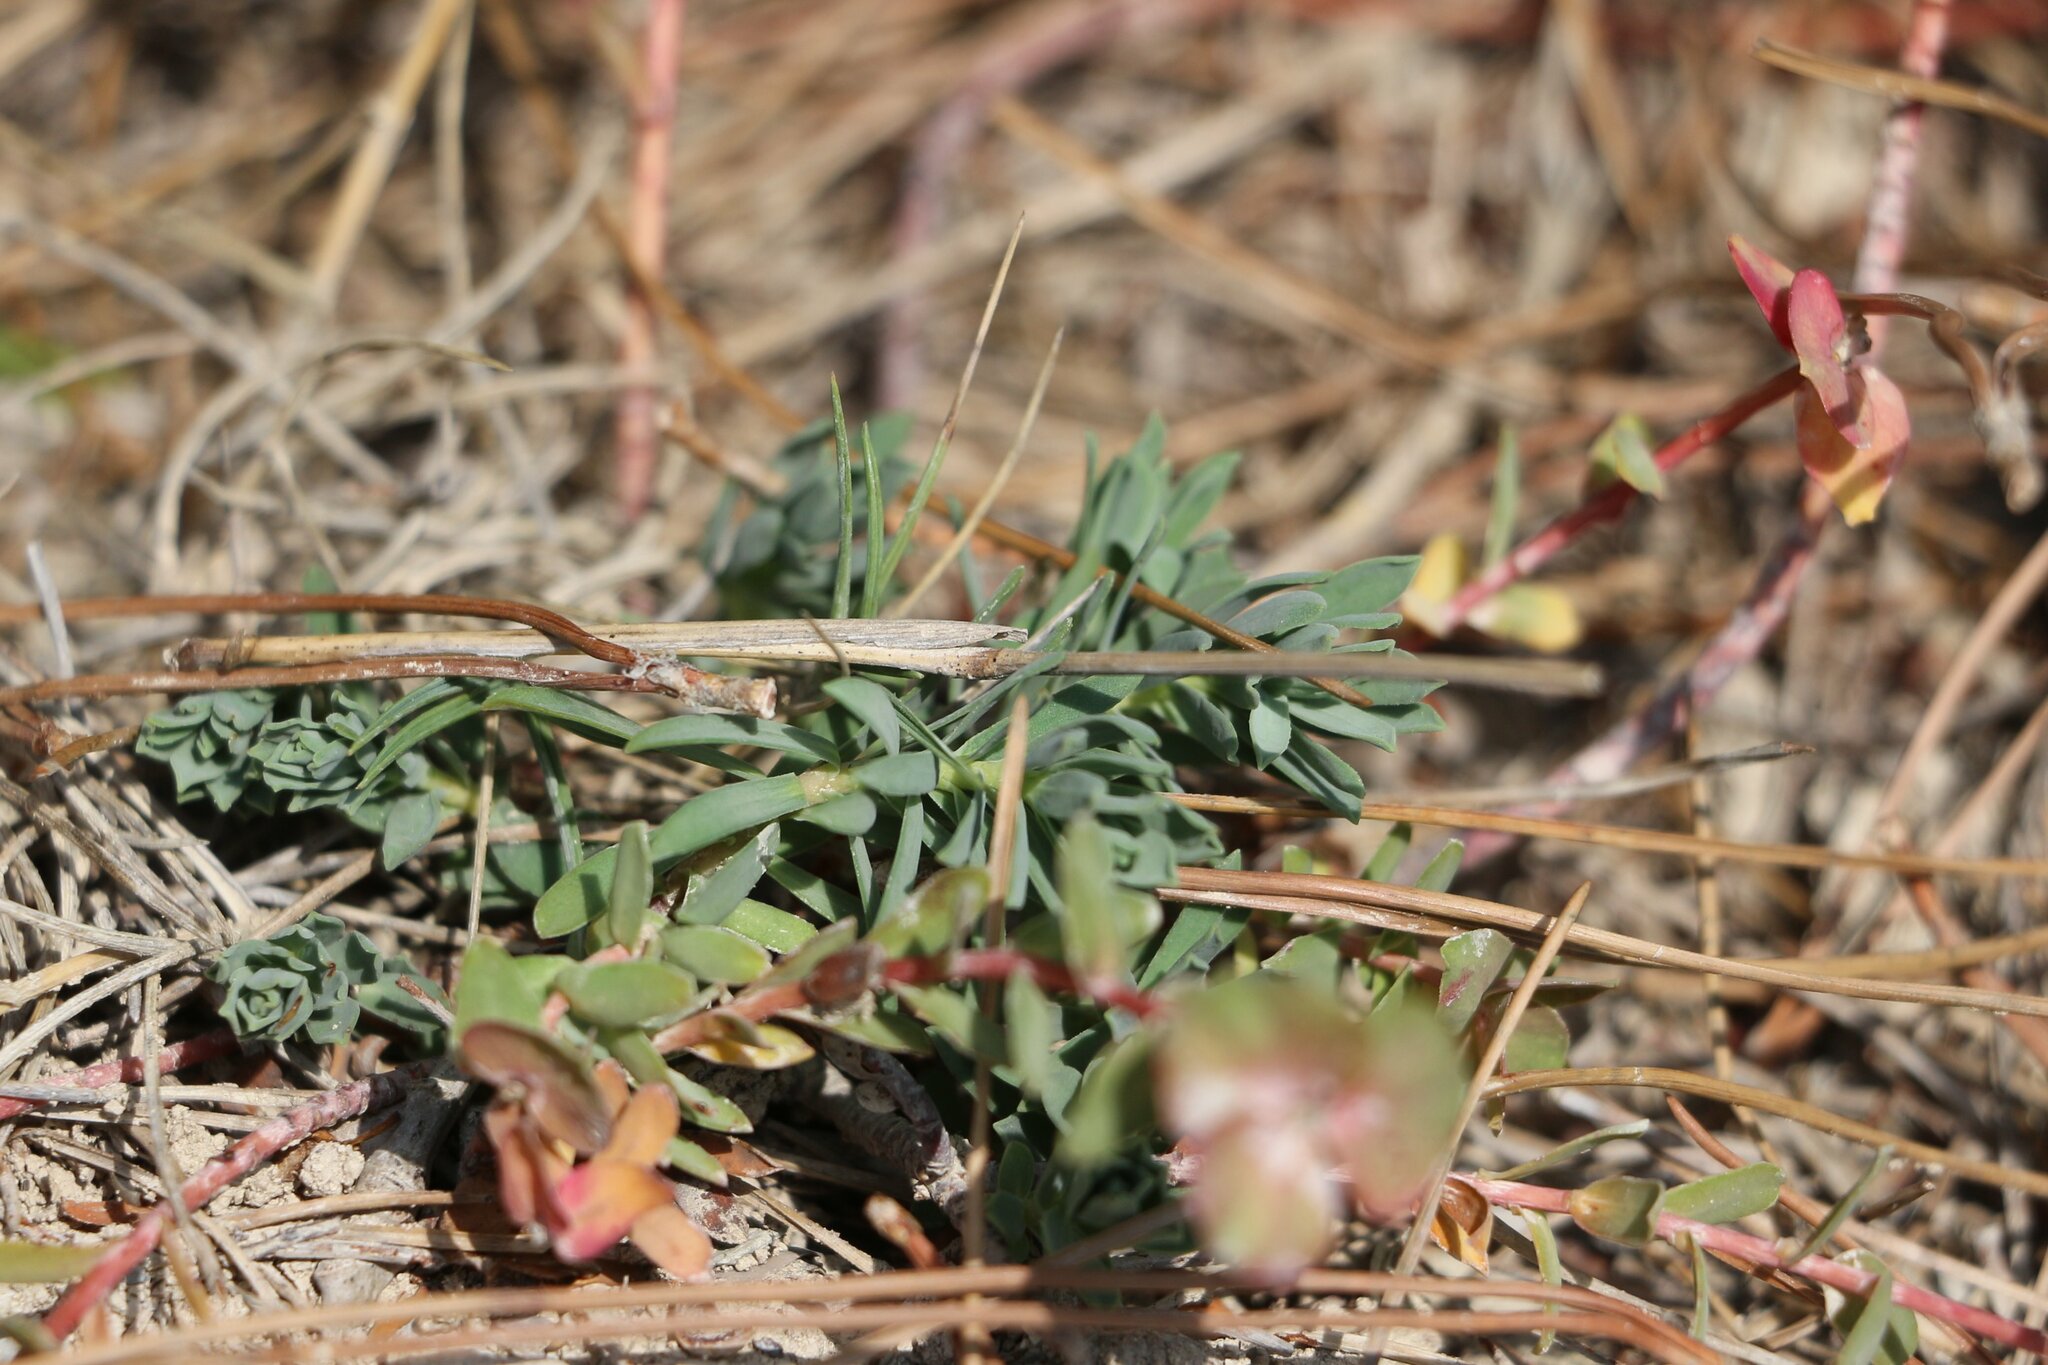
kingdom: Plantae
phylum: Tracheophyta
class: Magnoliopsida
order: Malpighiales
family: Euphorbiaceae
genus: Euphorbia
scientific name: Euphorbia petrophila
